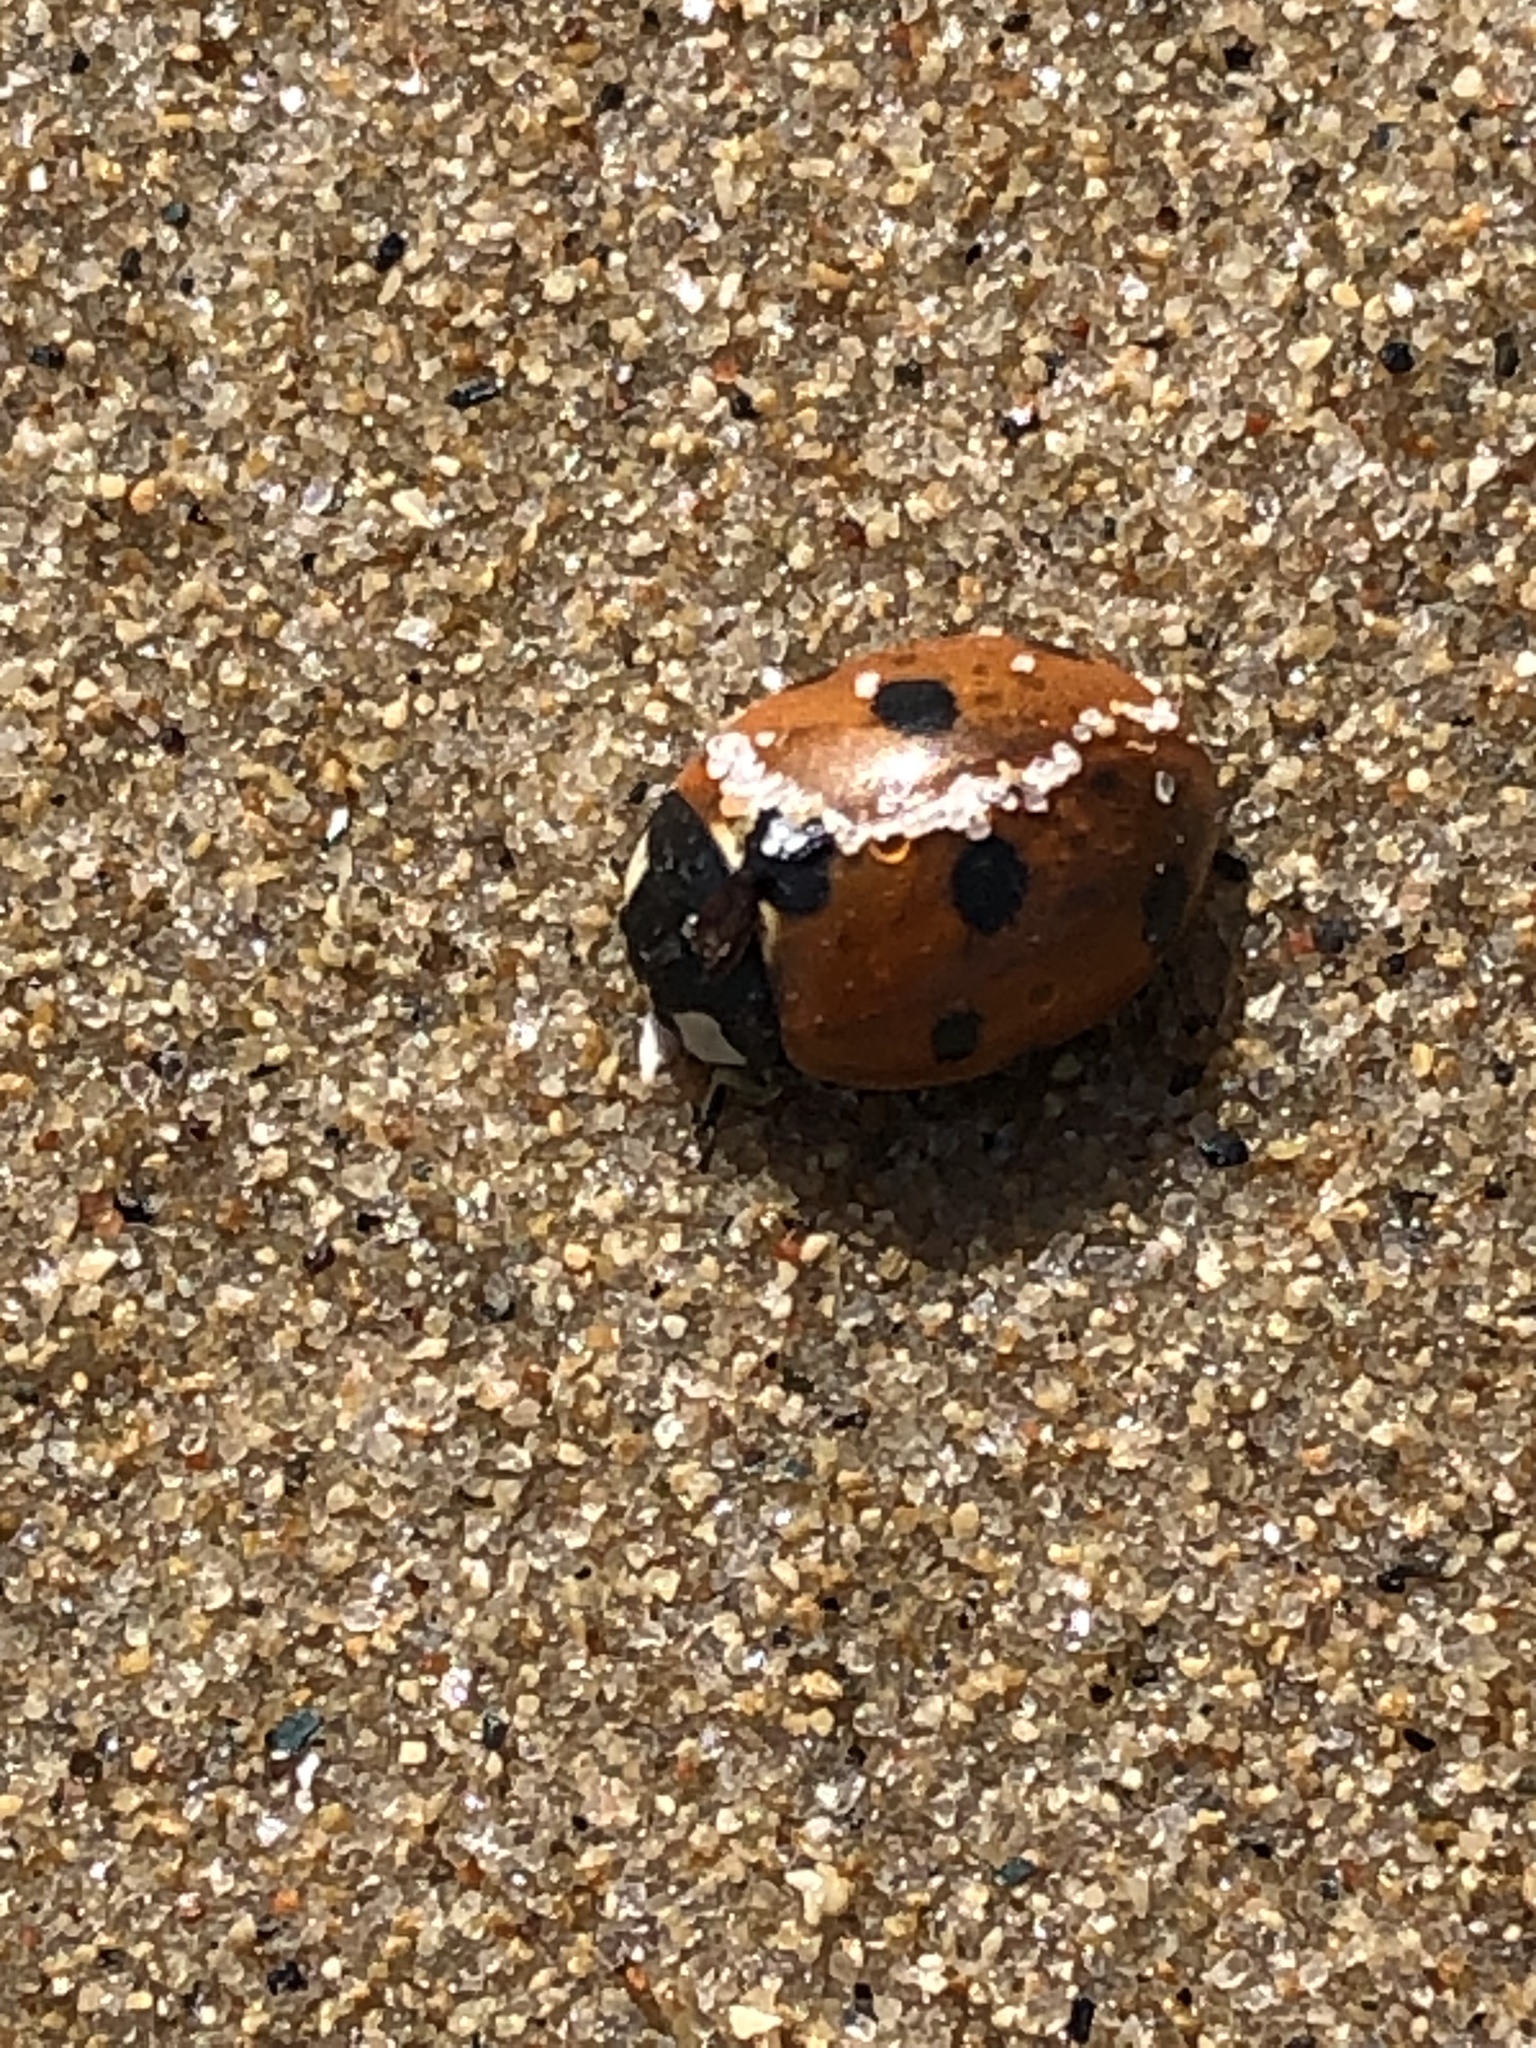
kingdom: Animalia
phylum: Arthropoda
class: Insecta
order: Coleoptera
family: Coccinellidae
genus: Coccinella
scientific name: Coccinella septempunctata
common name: Sevenspotted lady beetle
